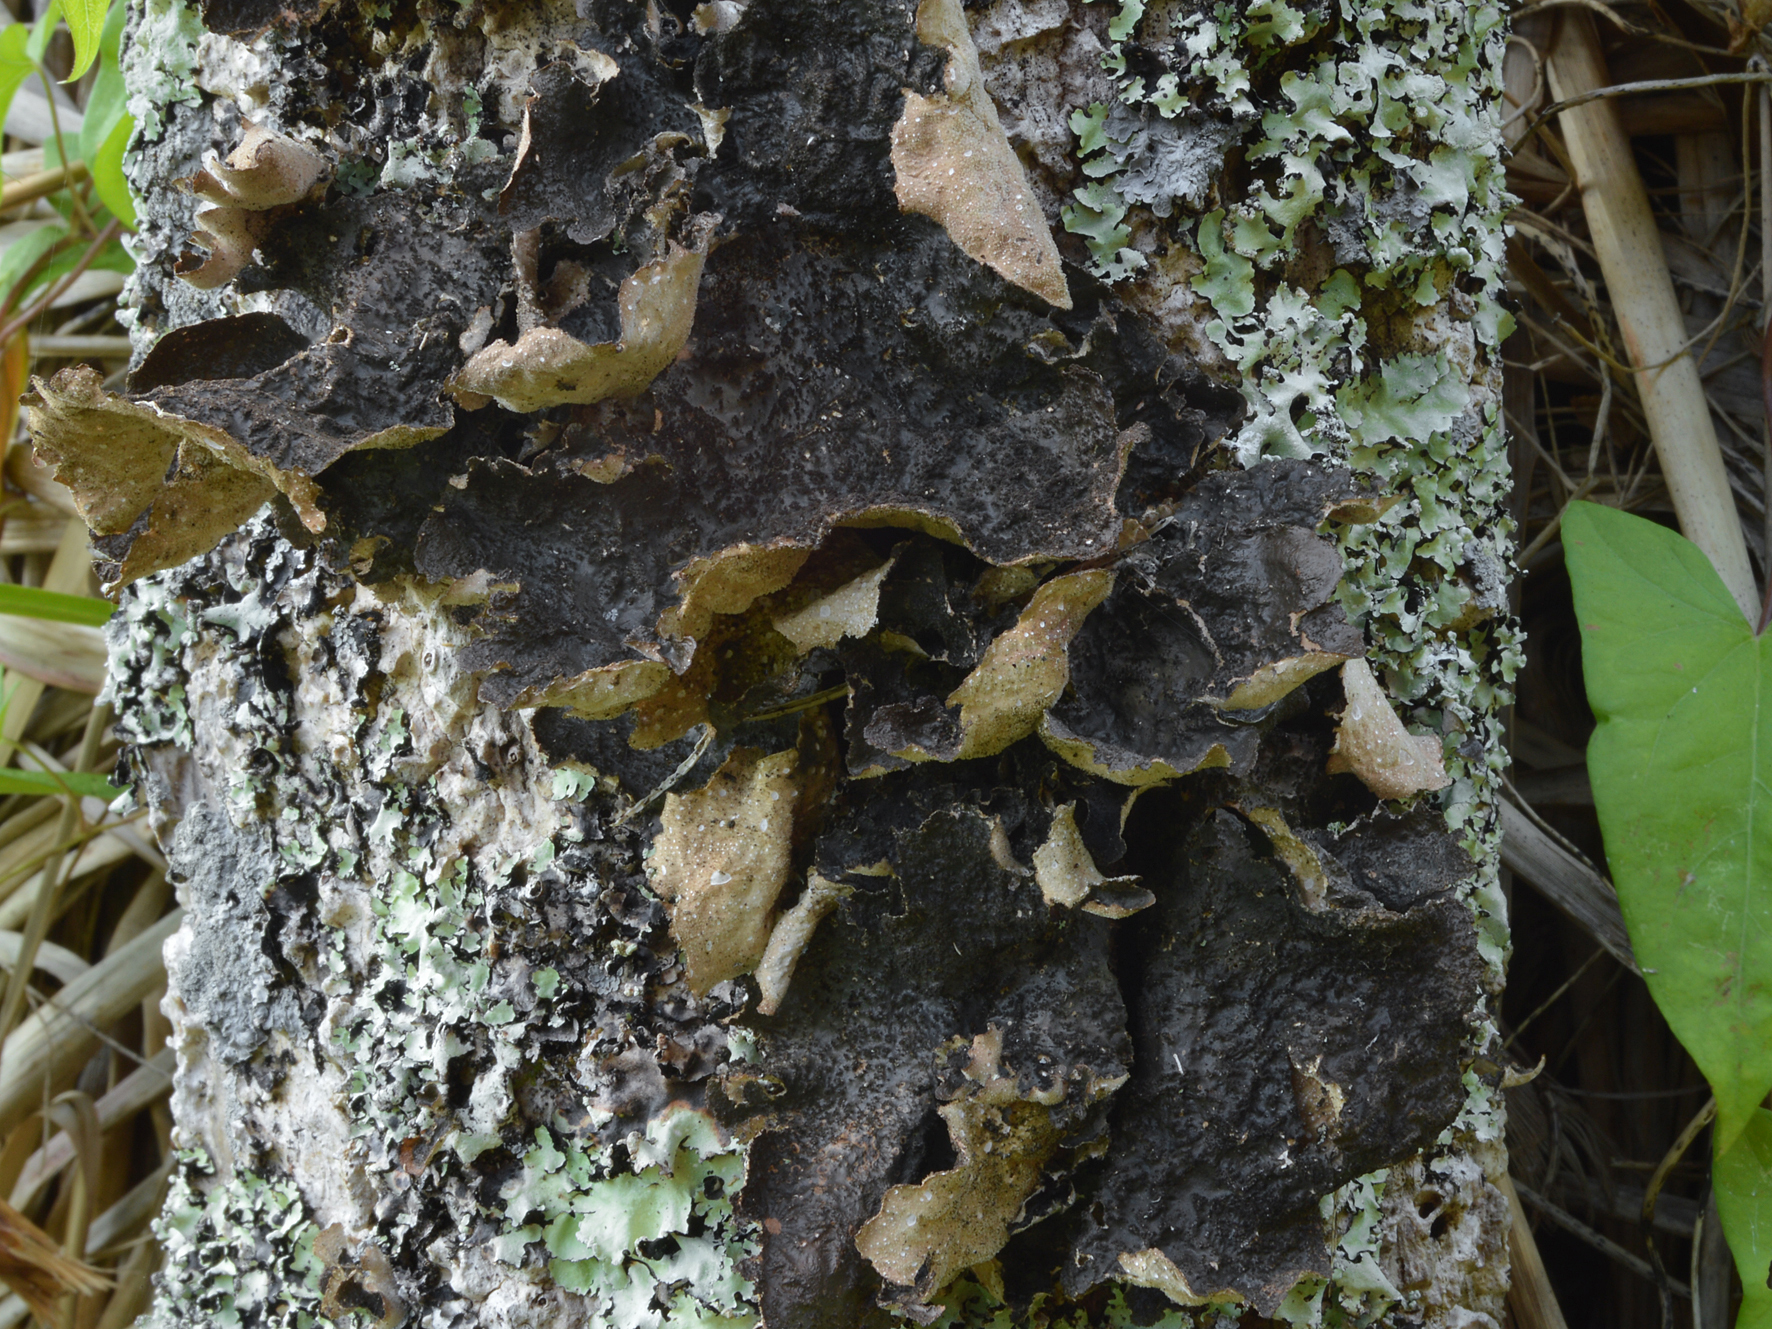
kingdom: Fungi
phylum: Ascomycota
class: Lecanoromycetes
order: Peltigerales
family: Lobariaceae
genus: Sticta
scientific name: Sticta fuliginosa
